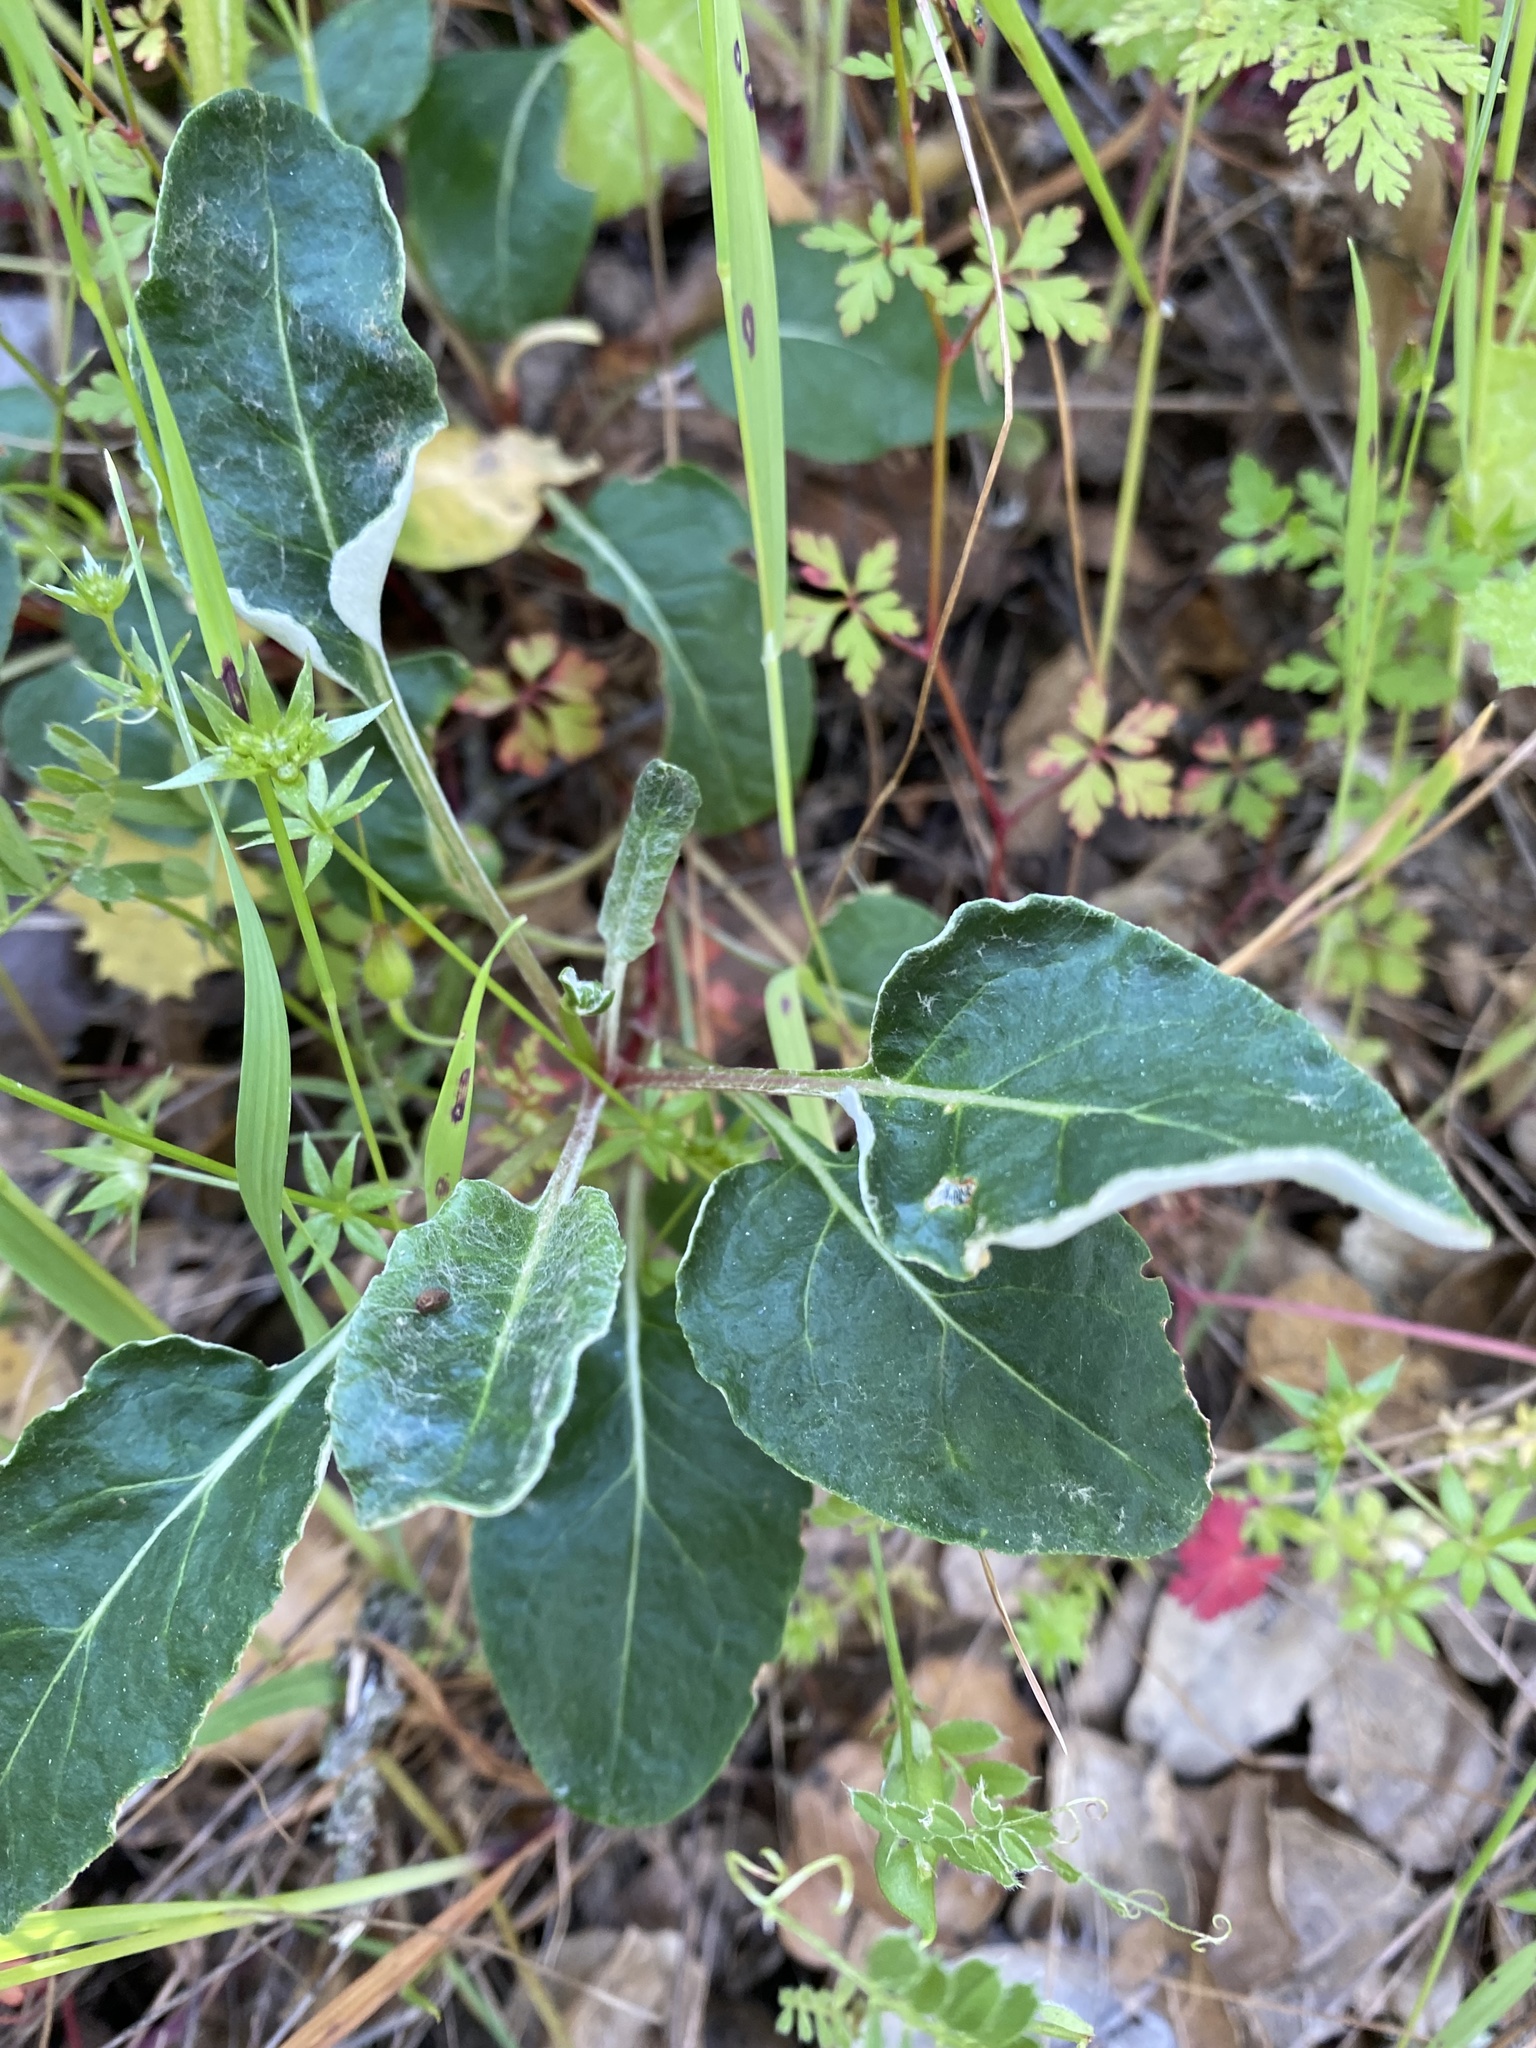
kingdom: Plantae
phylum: Tracheophyta
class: Magnoliopsida
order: Caryophyllales
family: Polygonaceae
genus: Eriogonum
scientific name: Eriogonum nudum
